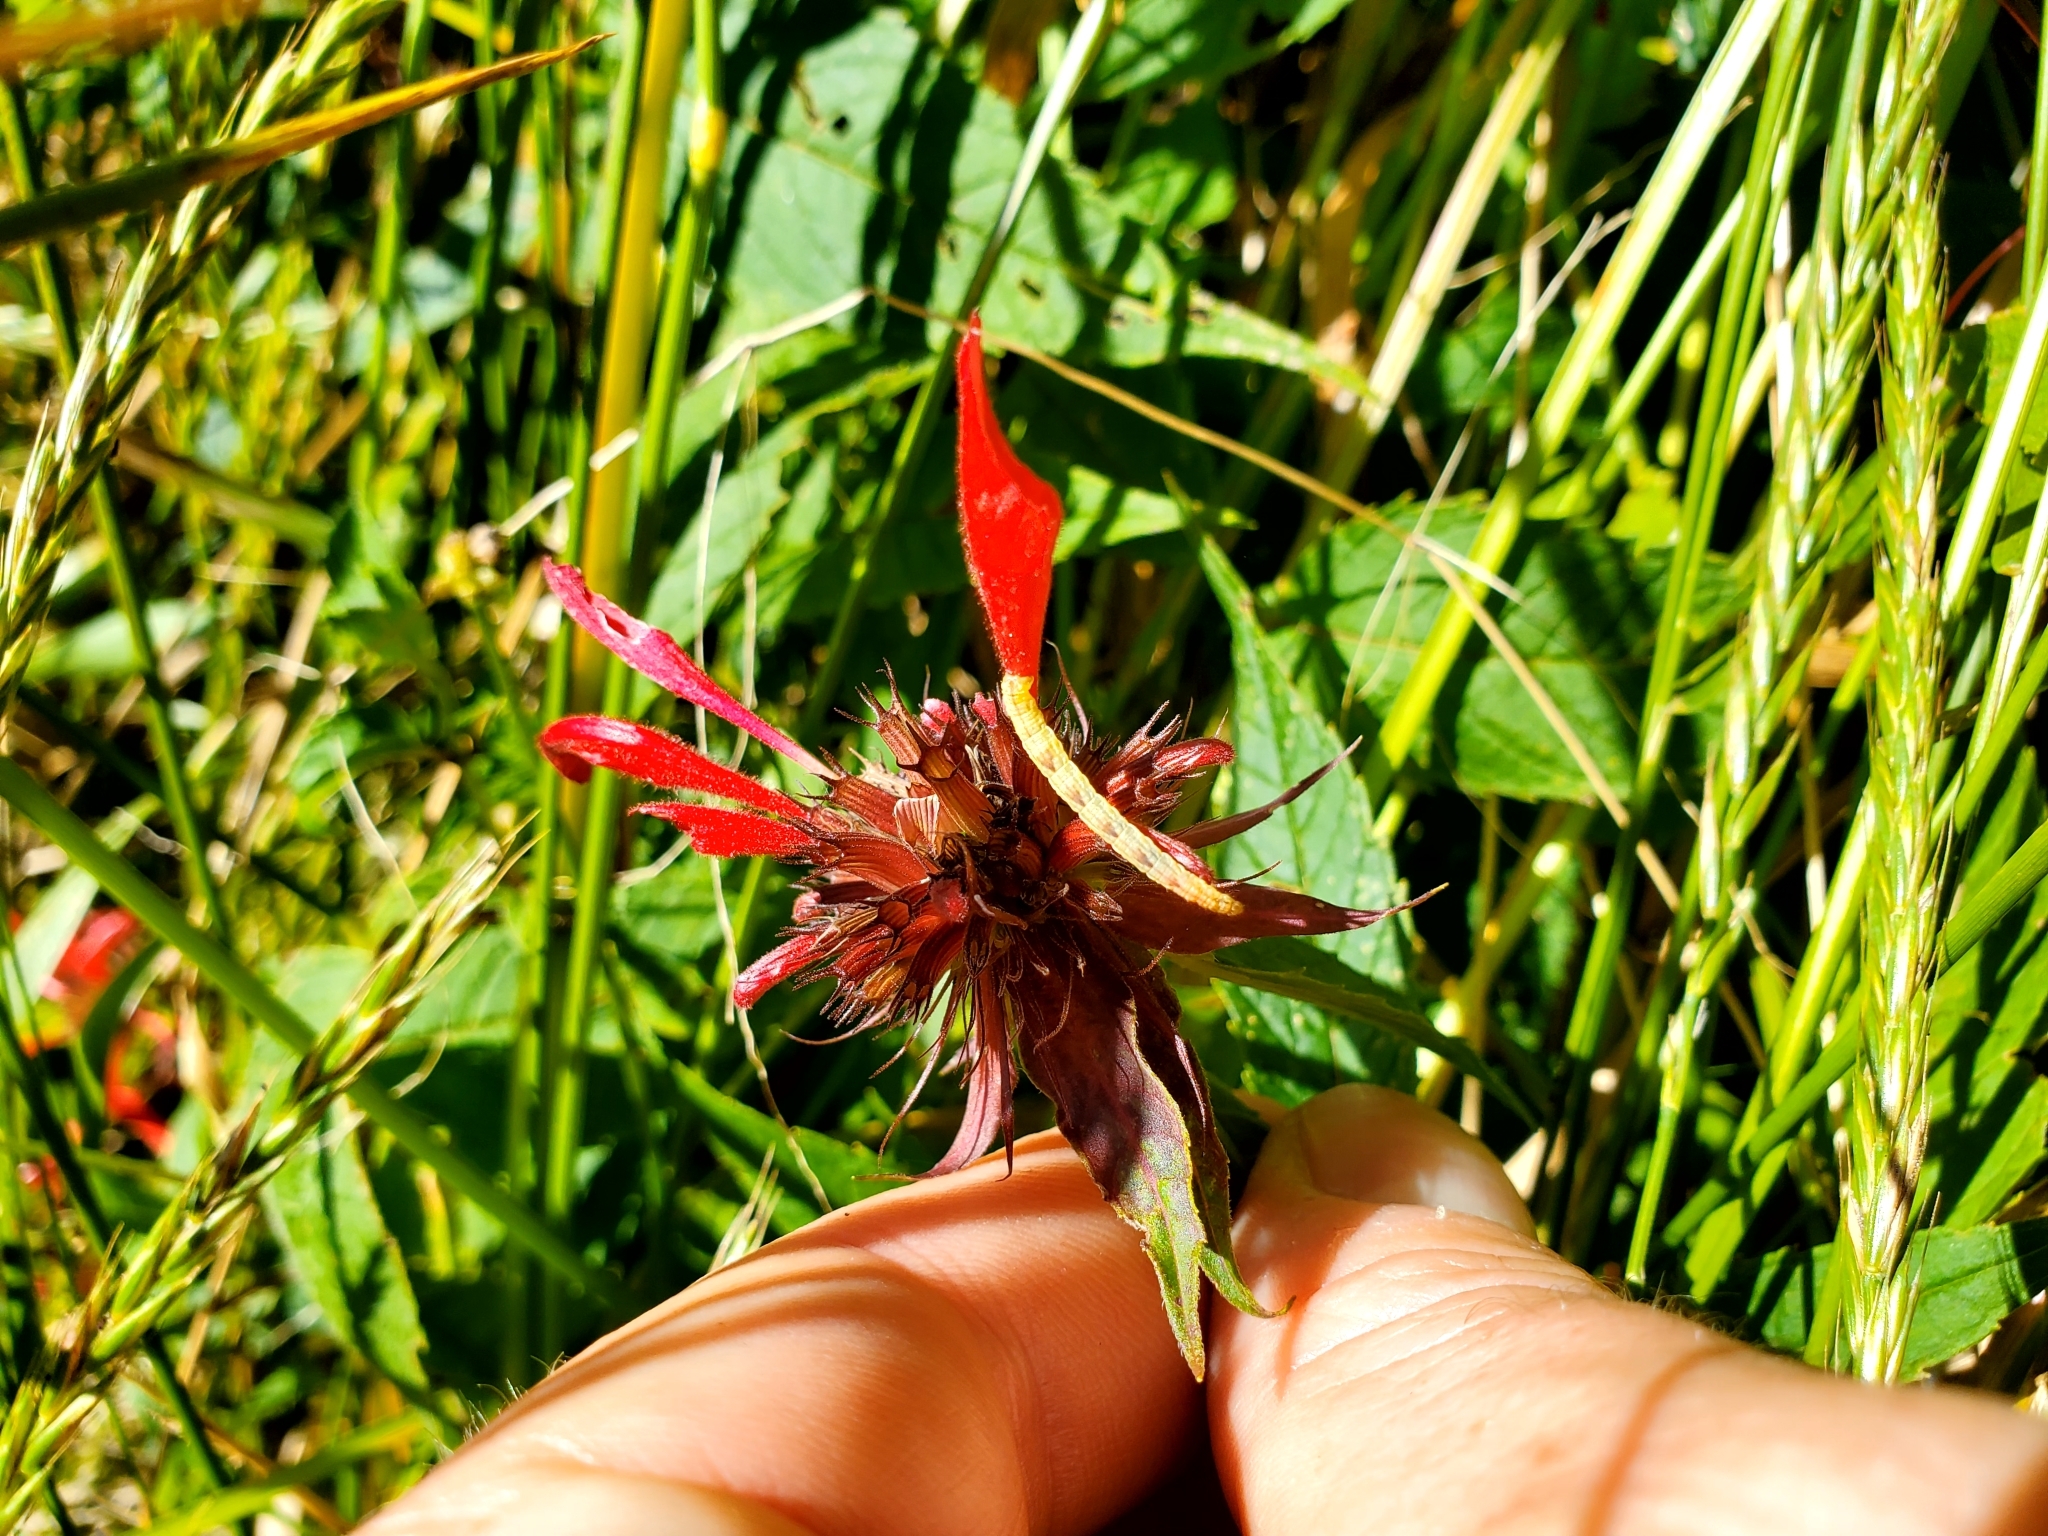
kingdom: Plantae
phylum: Tracheophyta
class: Magnoliopsida
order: Lamiales
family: Lamiaceae
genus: Monarda
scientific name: Monarda didyma
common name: Beebalm
